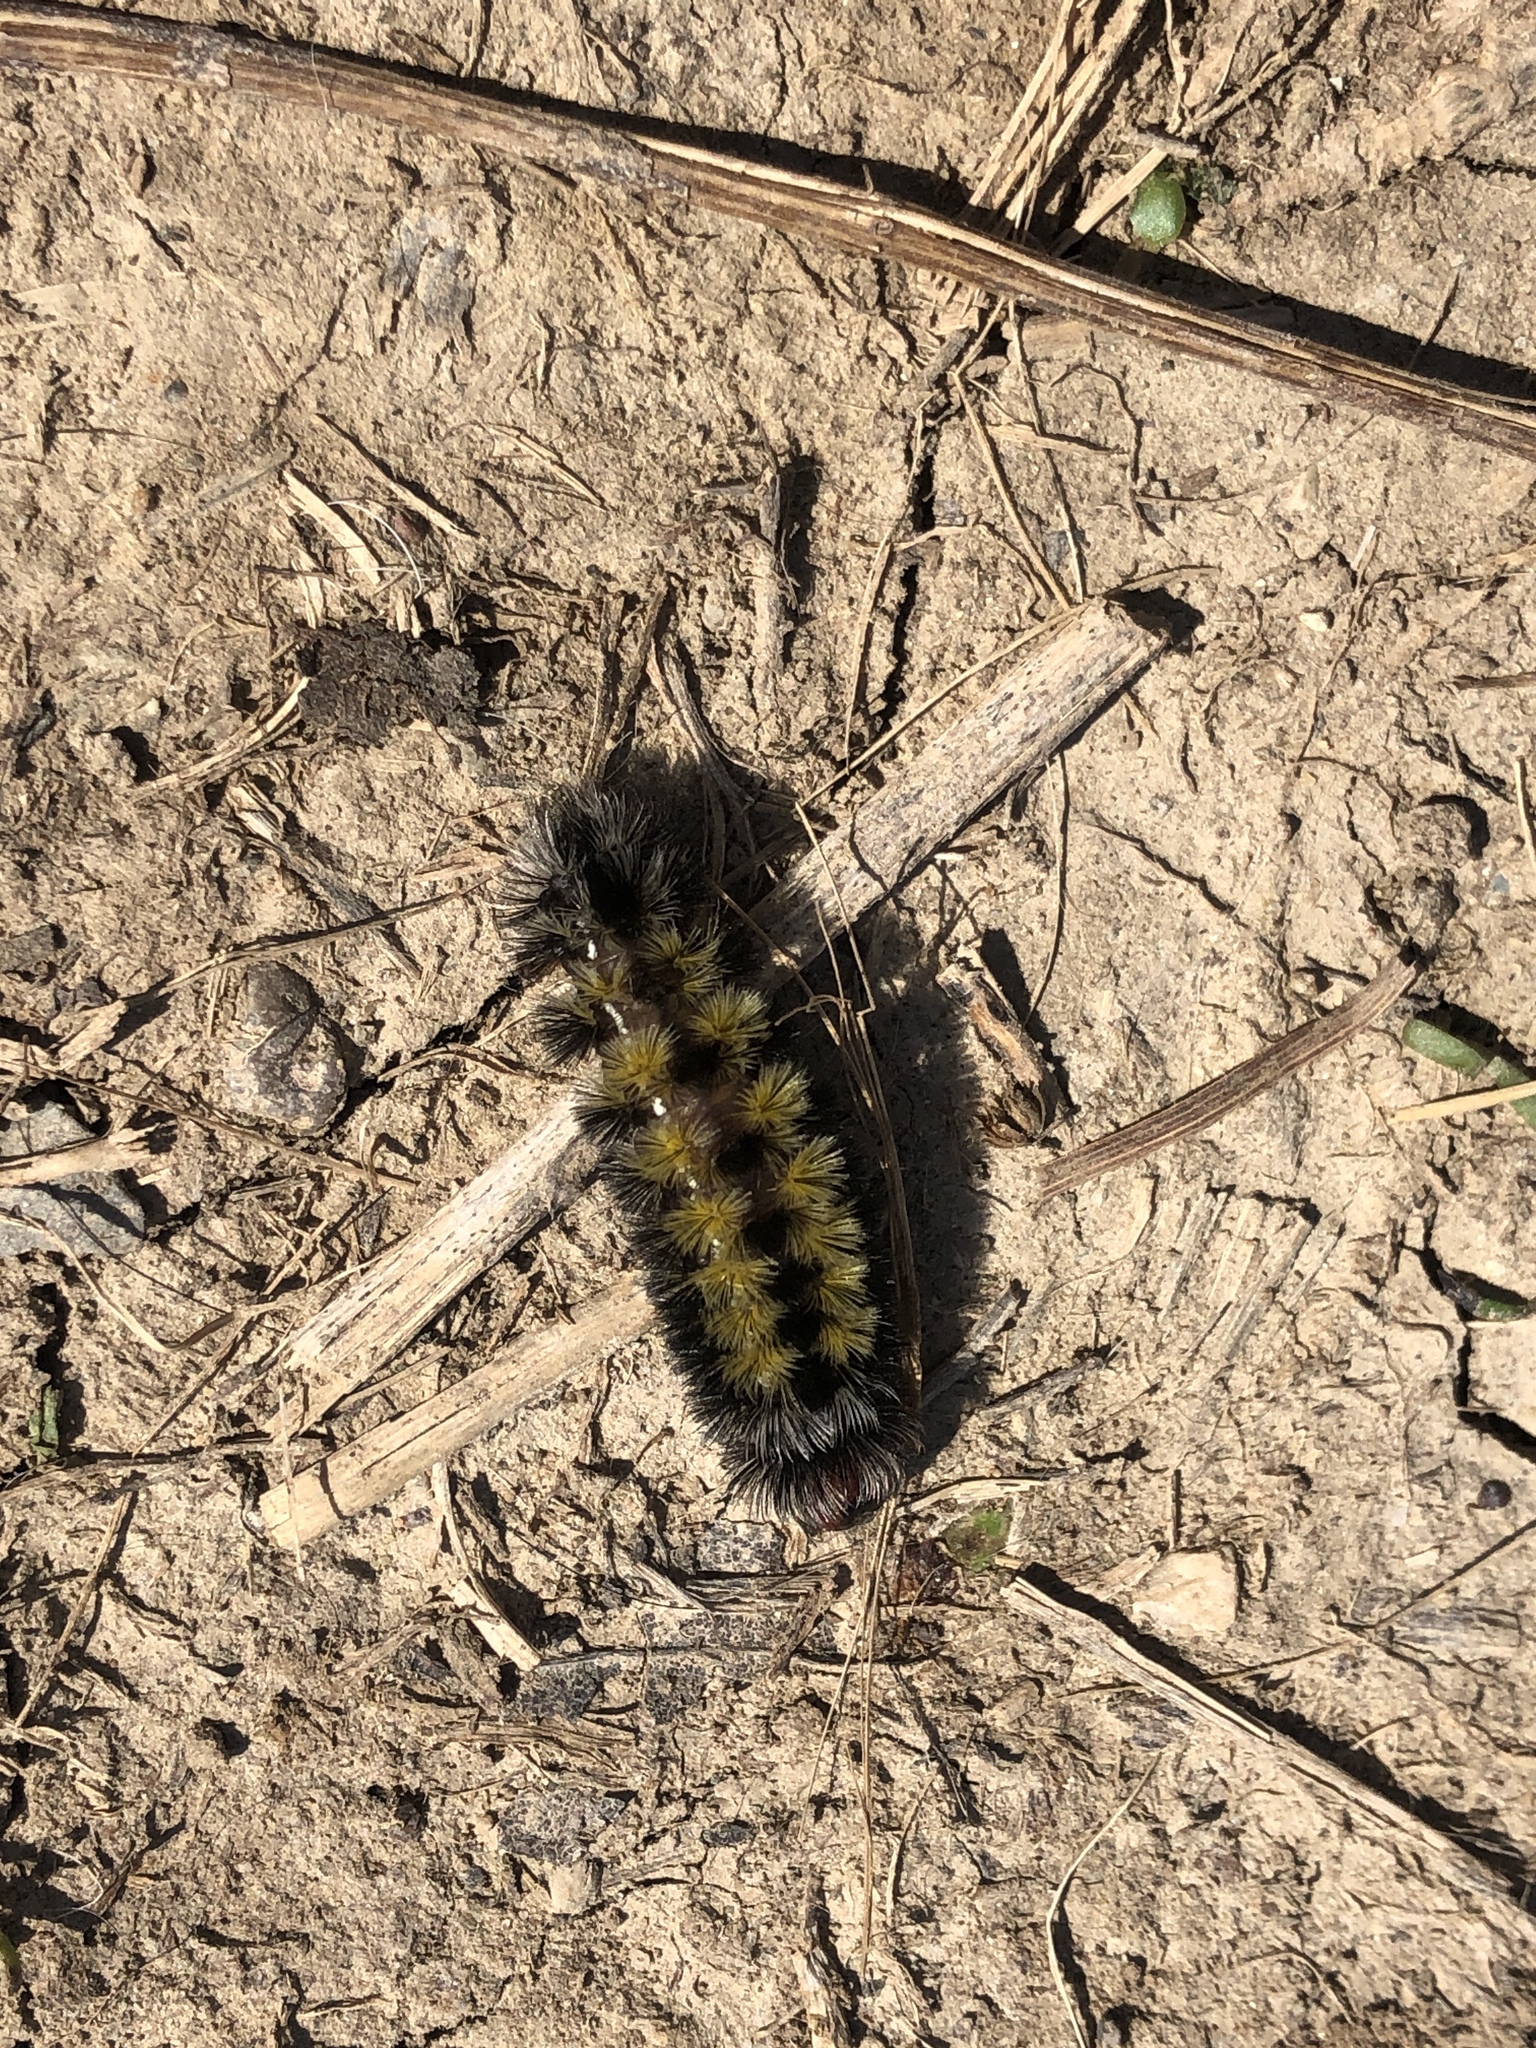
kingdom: Animalia
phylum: Arthropoda
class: Insecta
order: Lepidoptera
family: Erebidae
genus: Ctenucha
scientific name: Ctenucha virginica
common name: Virginia ctenucha moth
